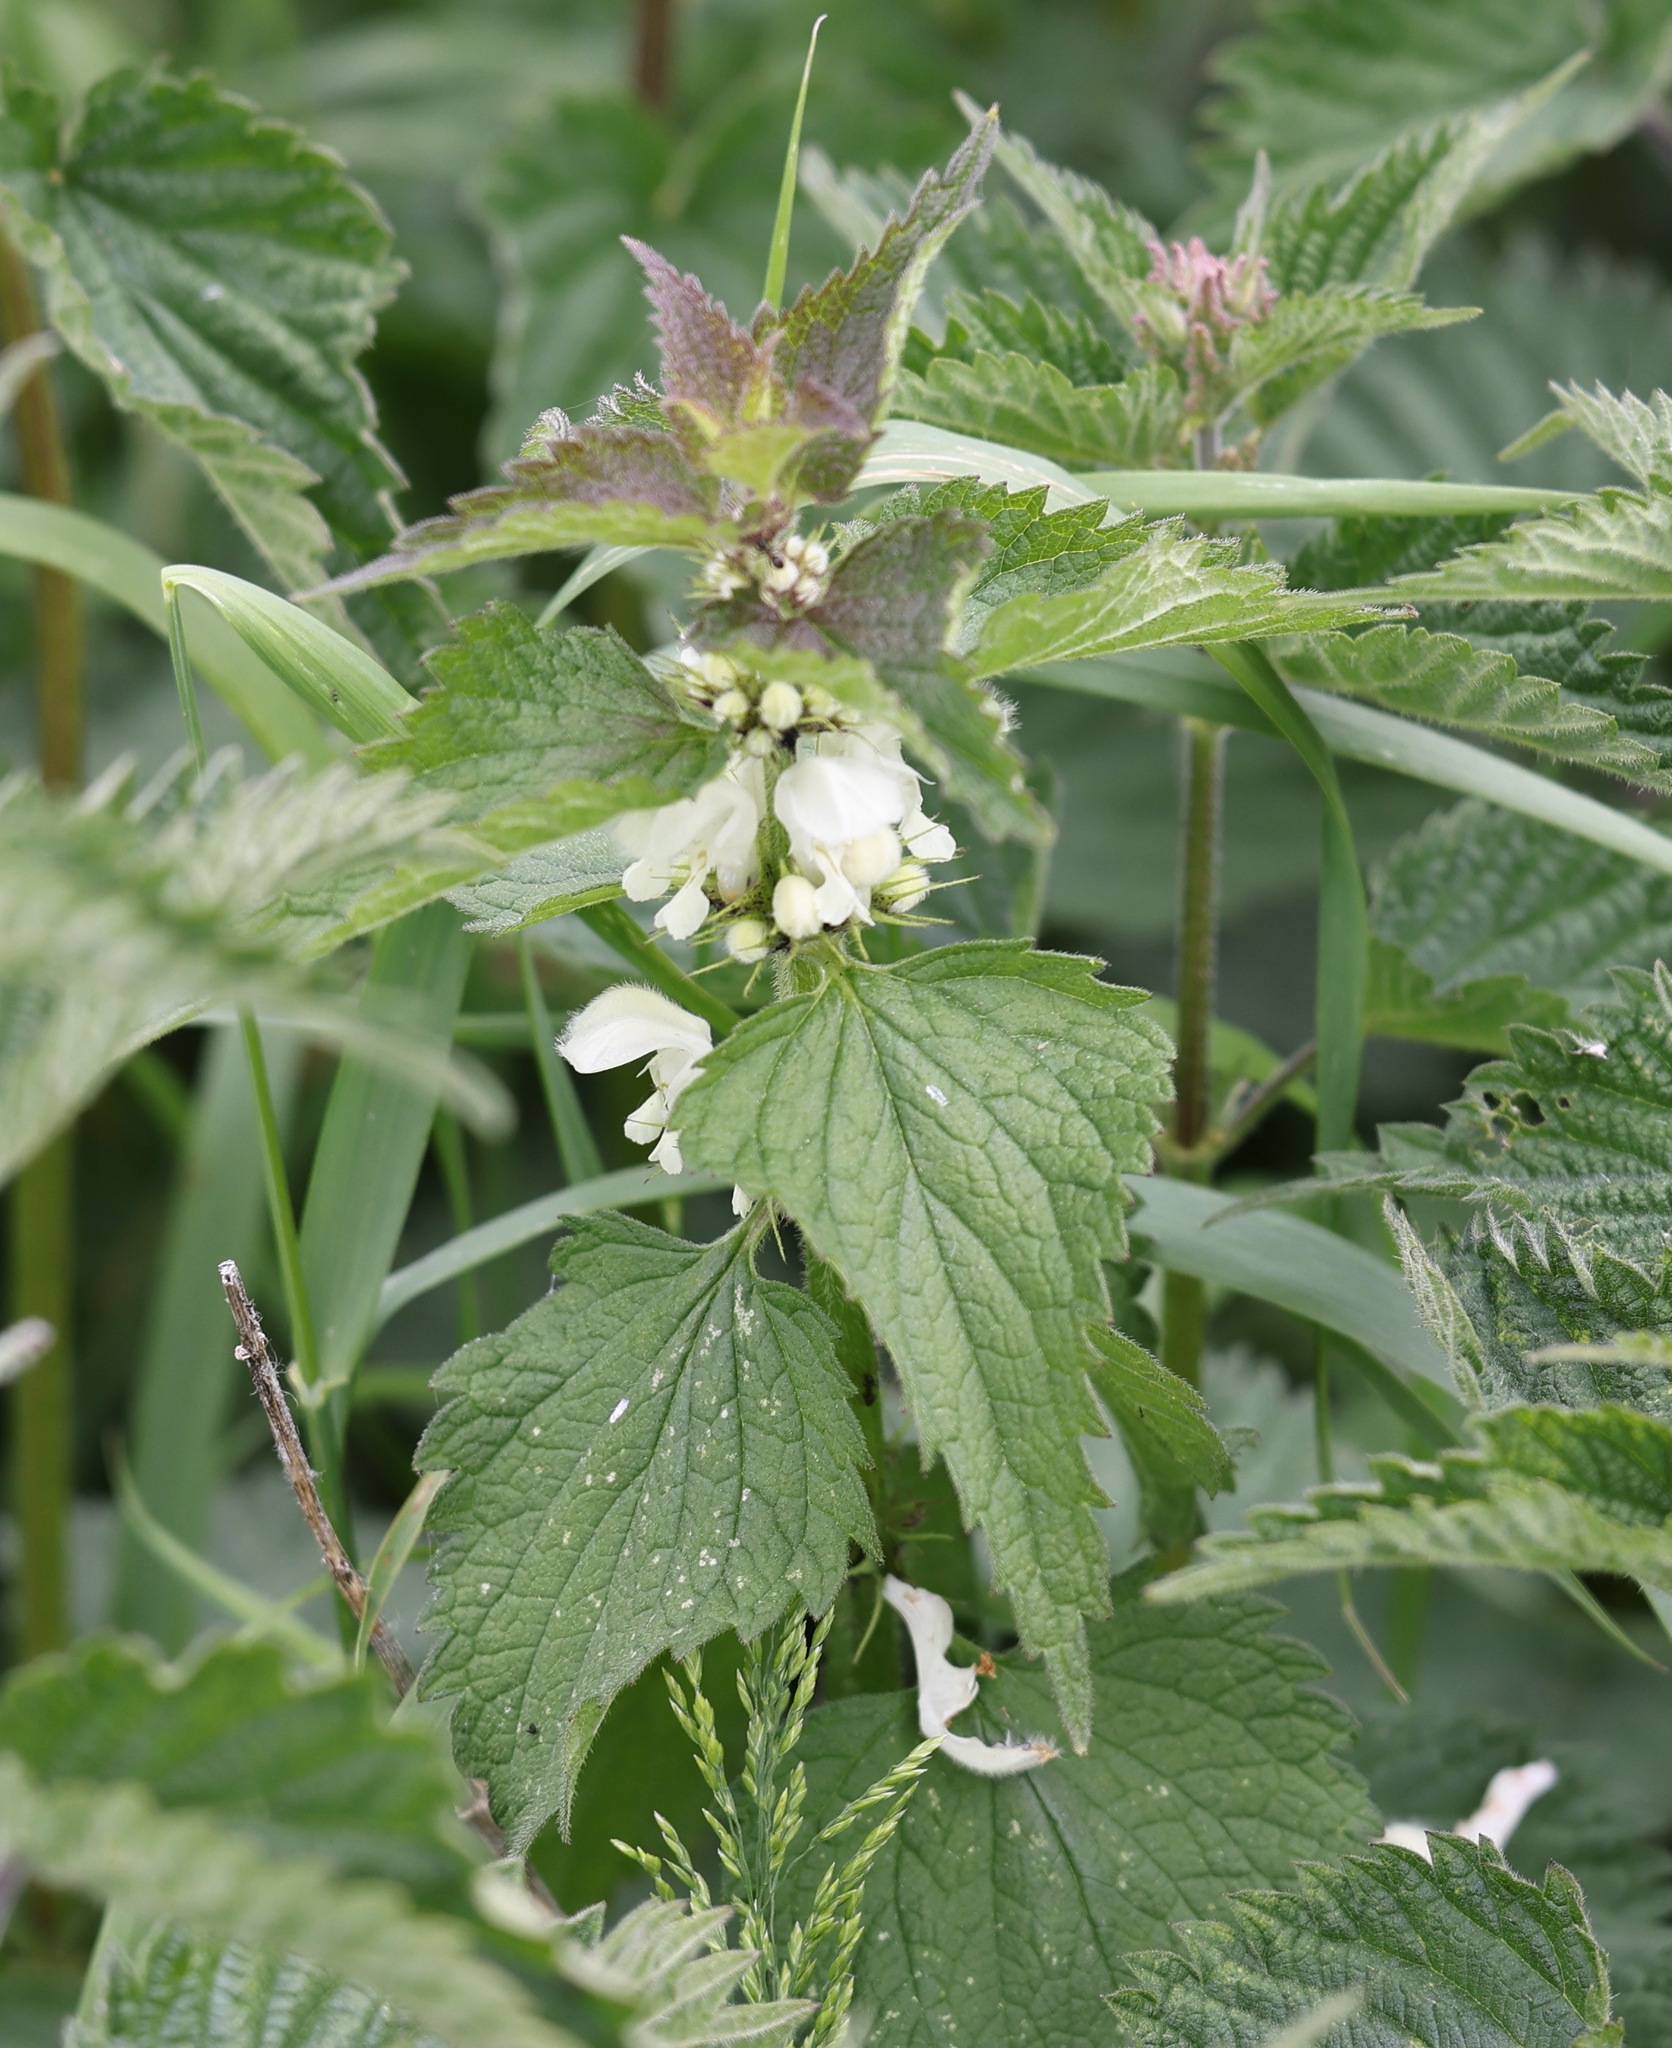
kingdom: Plantae
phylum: Tracheophyta
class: Magnoliopsida
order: Lamiales
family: Lamiaceae
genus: Lamium
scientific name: Lamium album
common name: White dead-nettle
